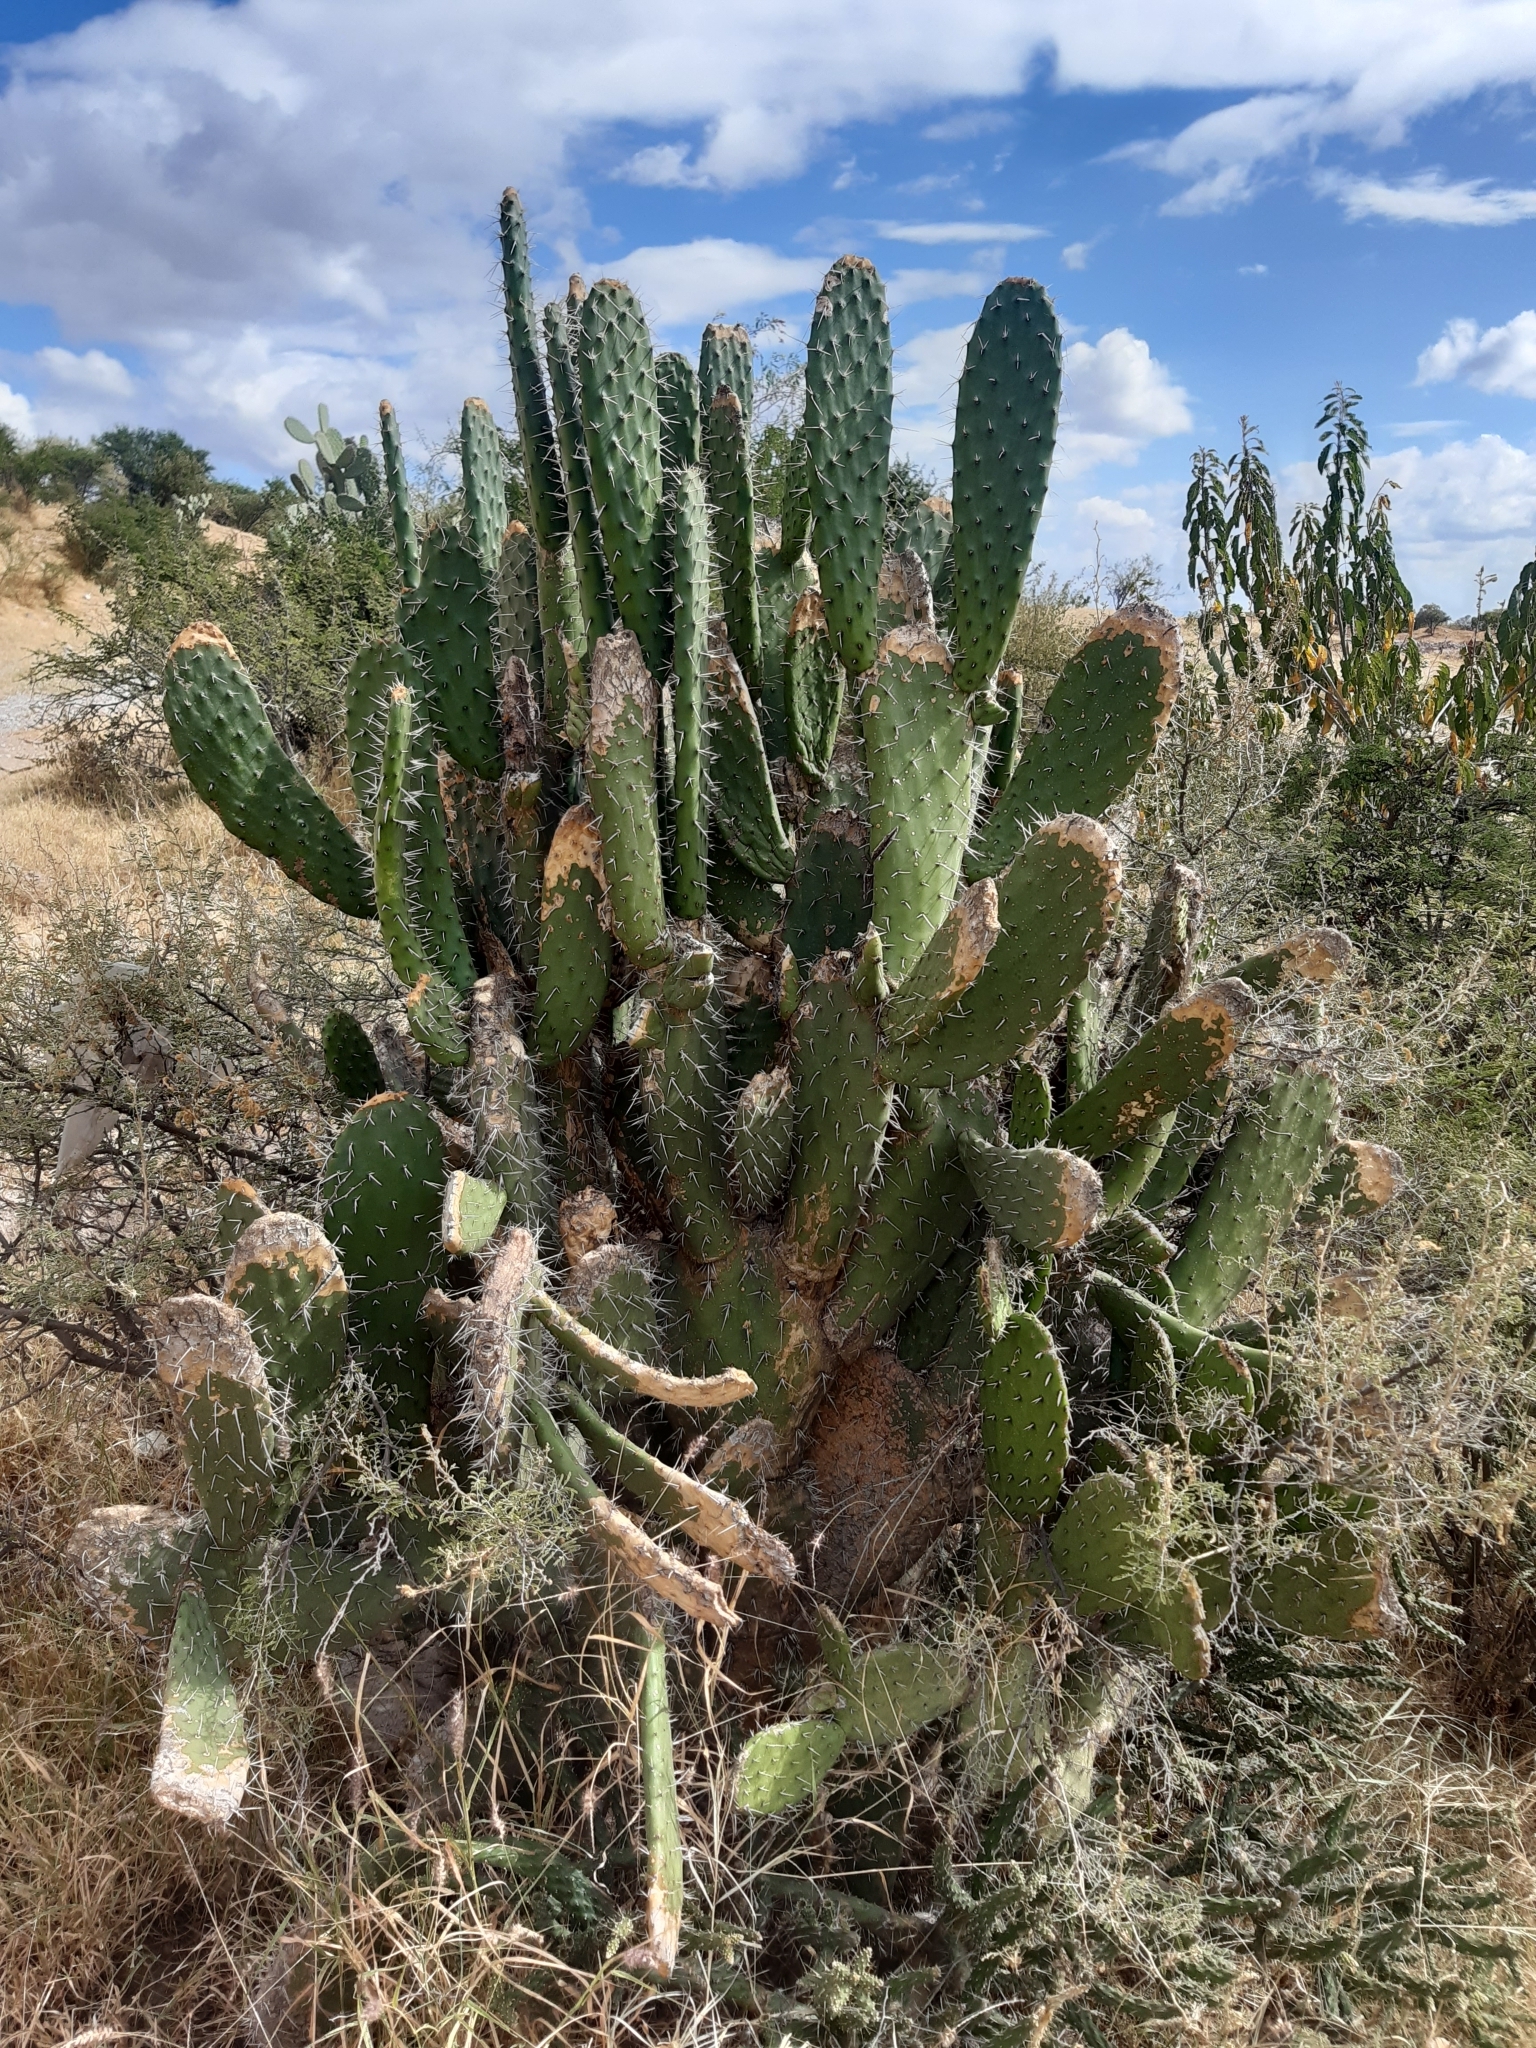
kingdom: Plantae
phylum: Tracheophyta
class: Magnoliopsida
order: Caryophyllales
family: Cactaceae
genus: Opuntia
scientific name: Opuntia tomentosa
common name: Woollyjoint pricklypear
